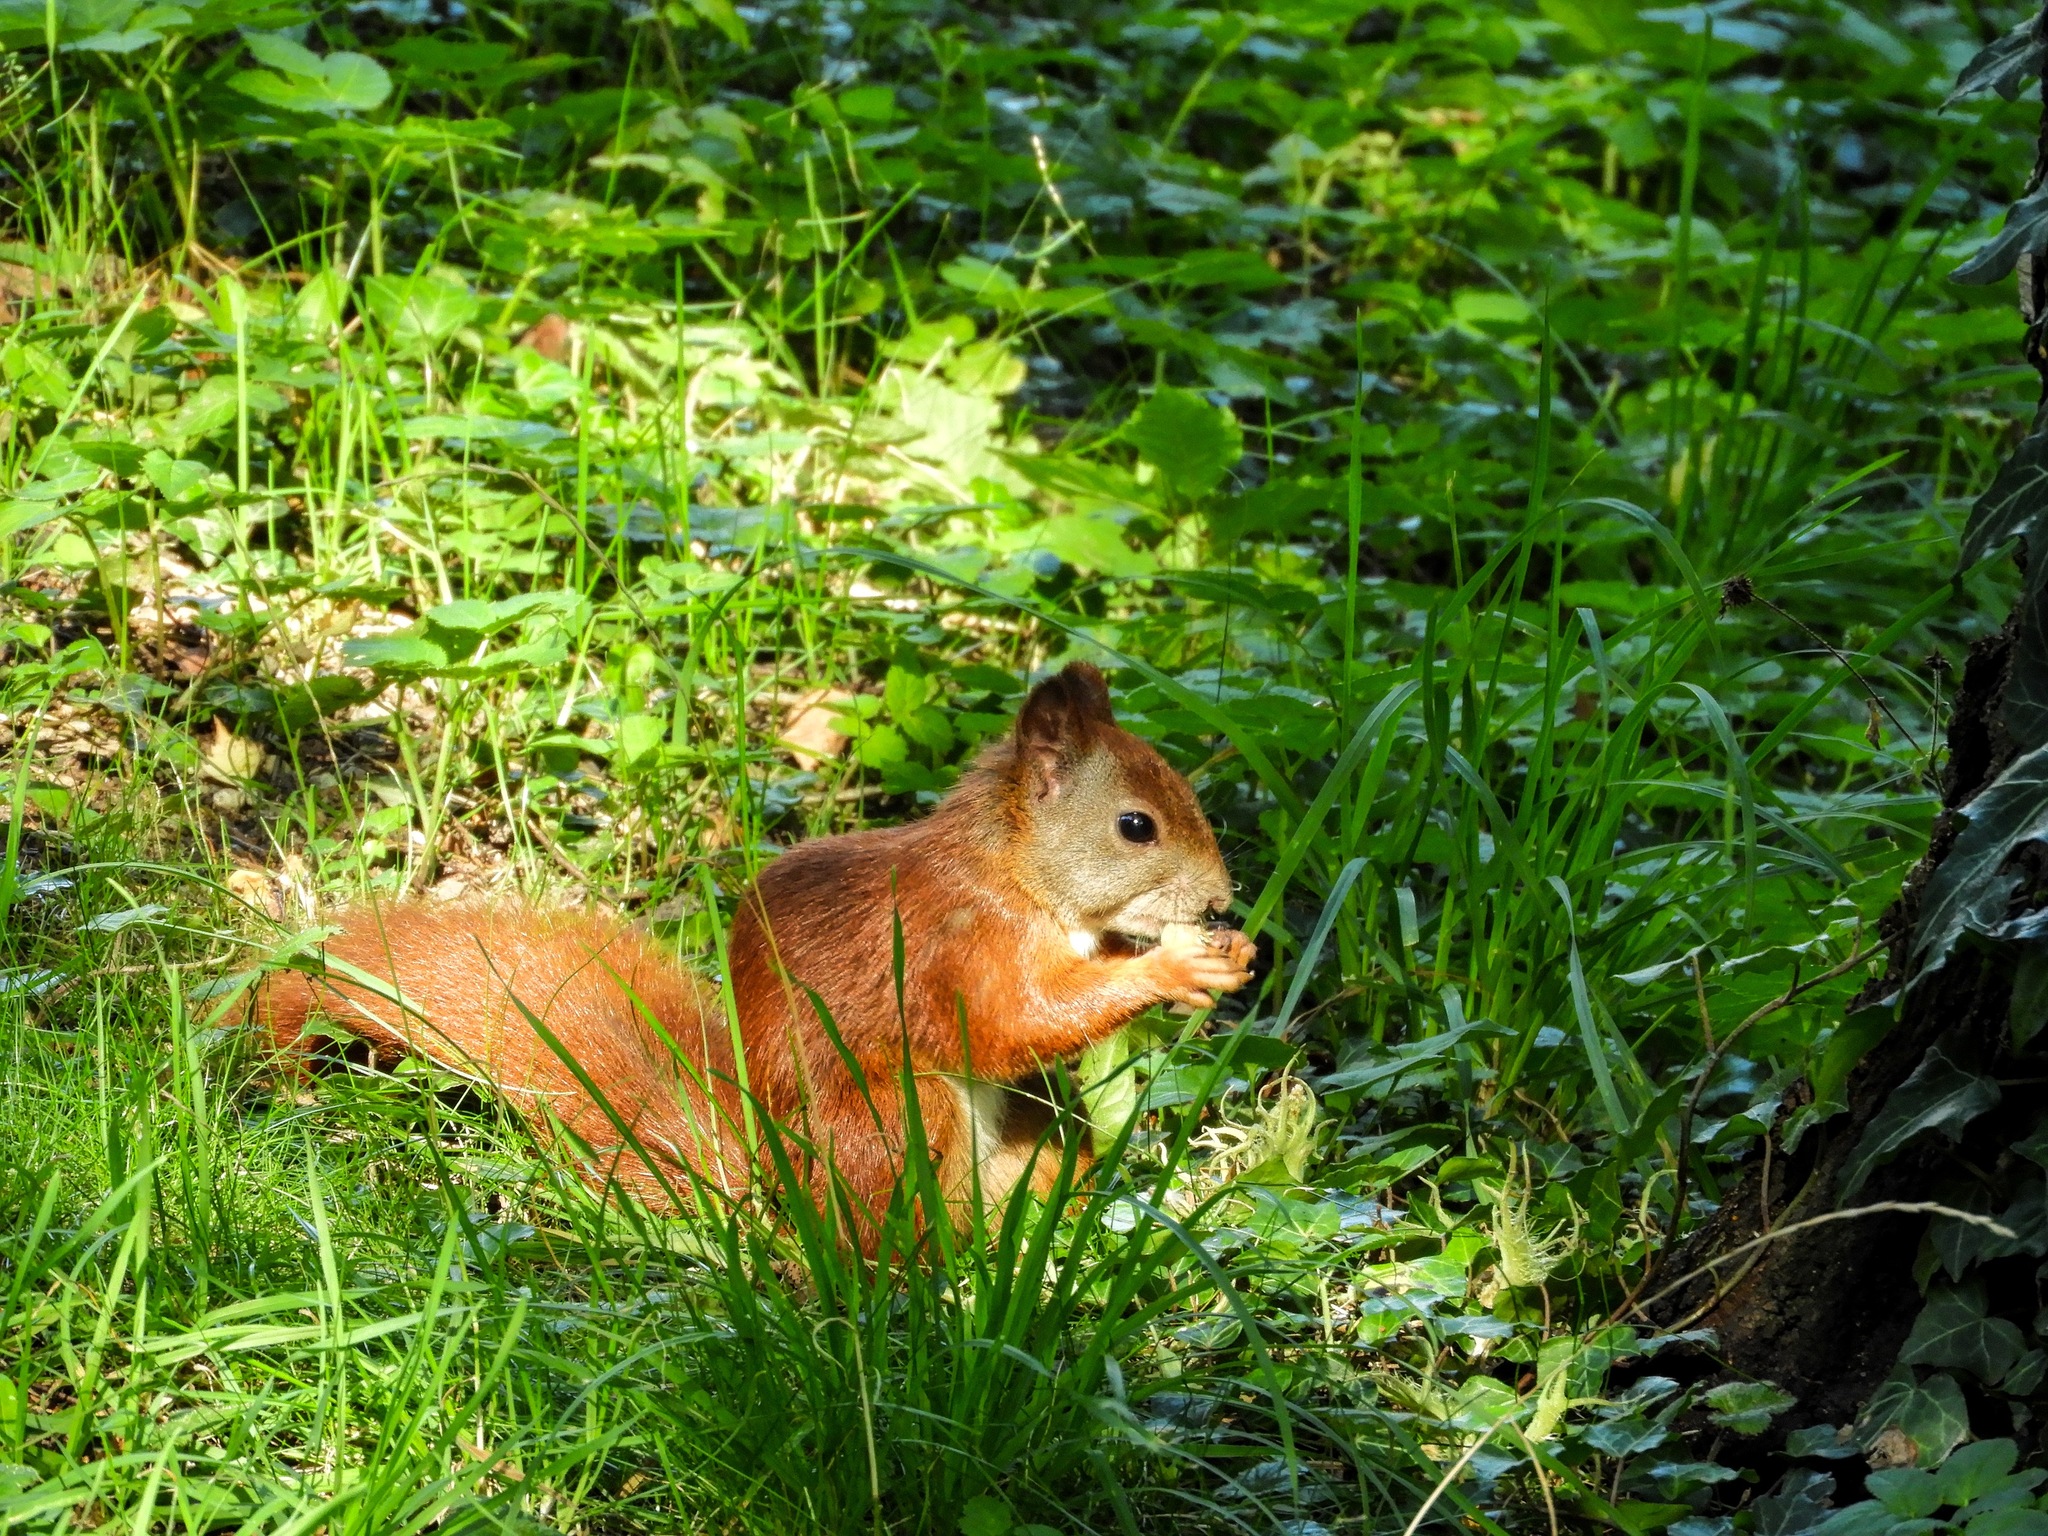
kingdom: Animalia
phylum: Chordata
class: Mammalia
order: Rodentia
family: Sciuridae
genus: Sciurus
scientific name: Sciurus vulgaris
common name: Eurasian red squirrel
